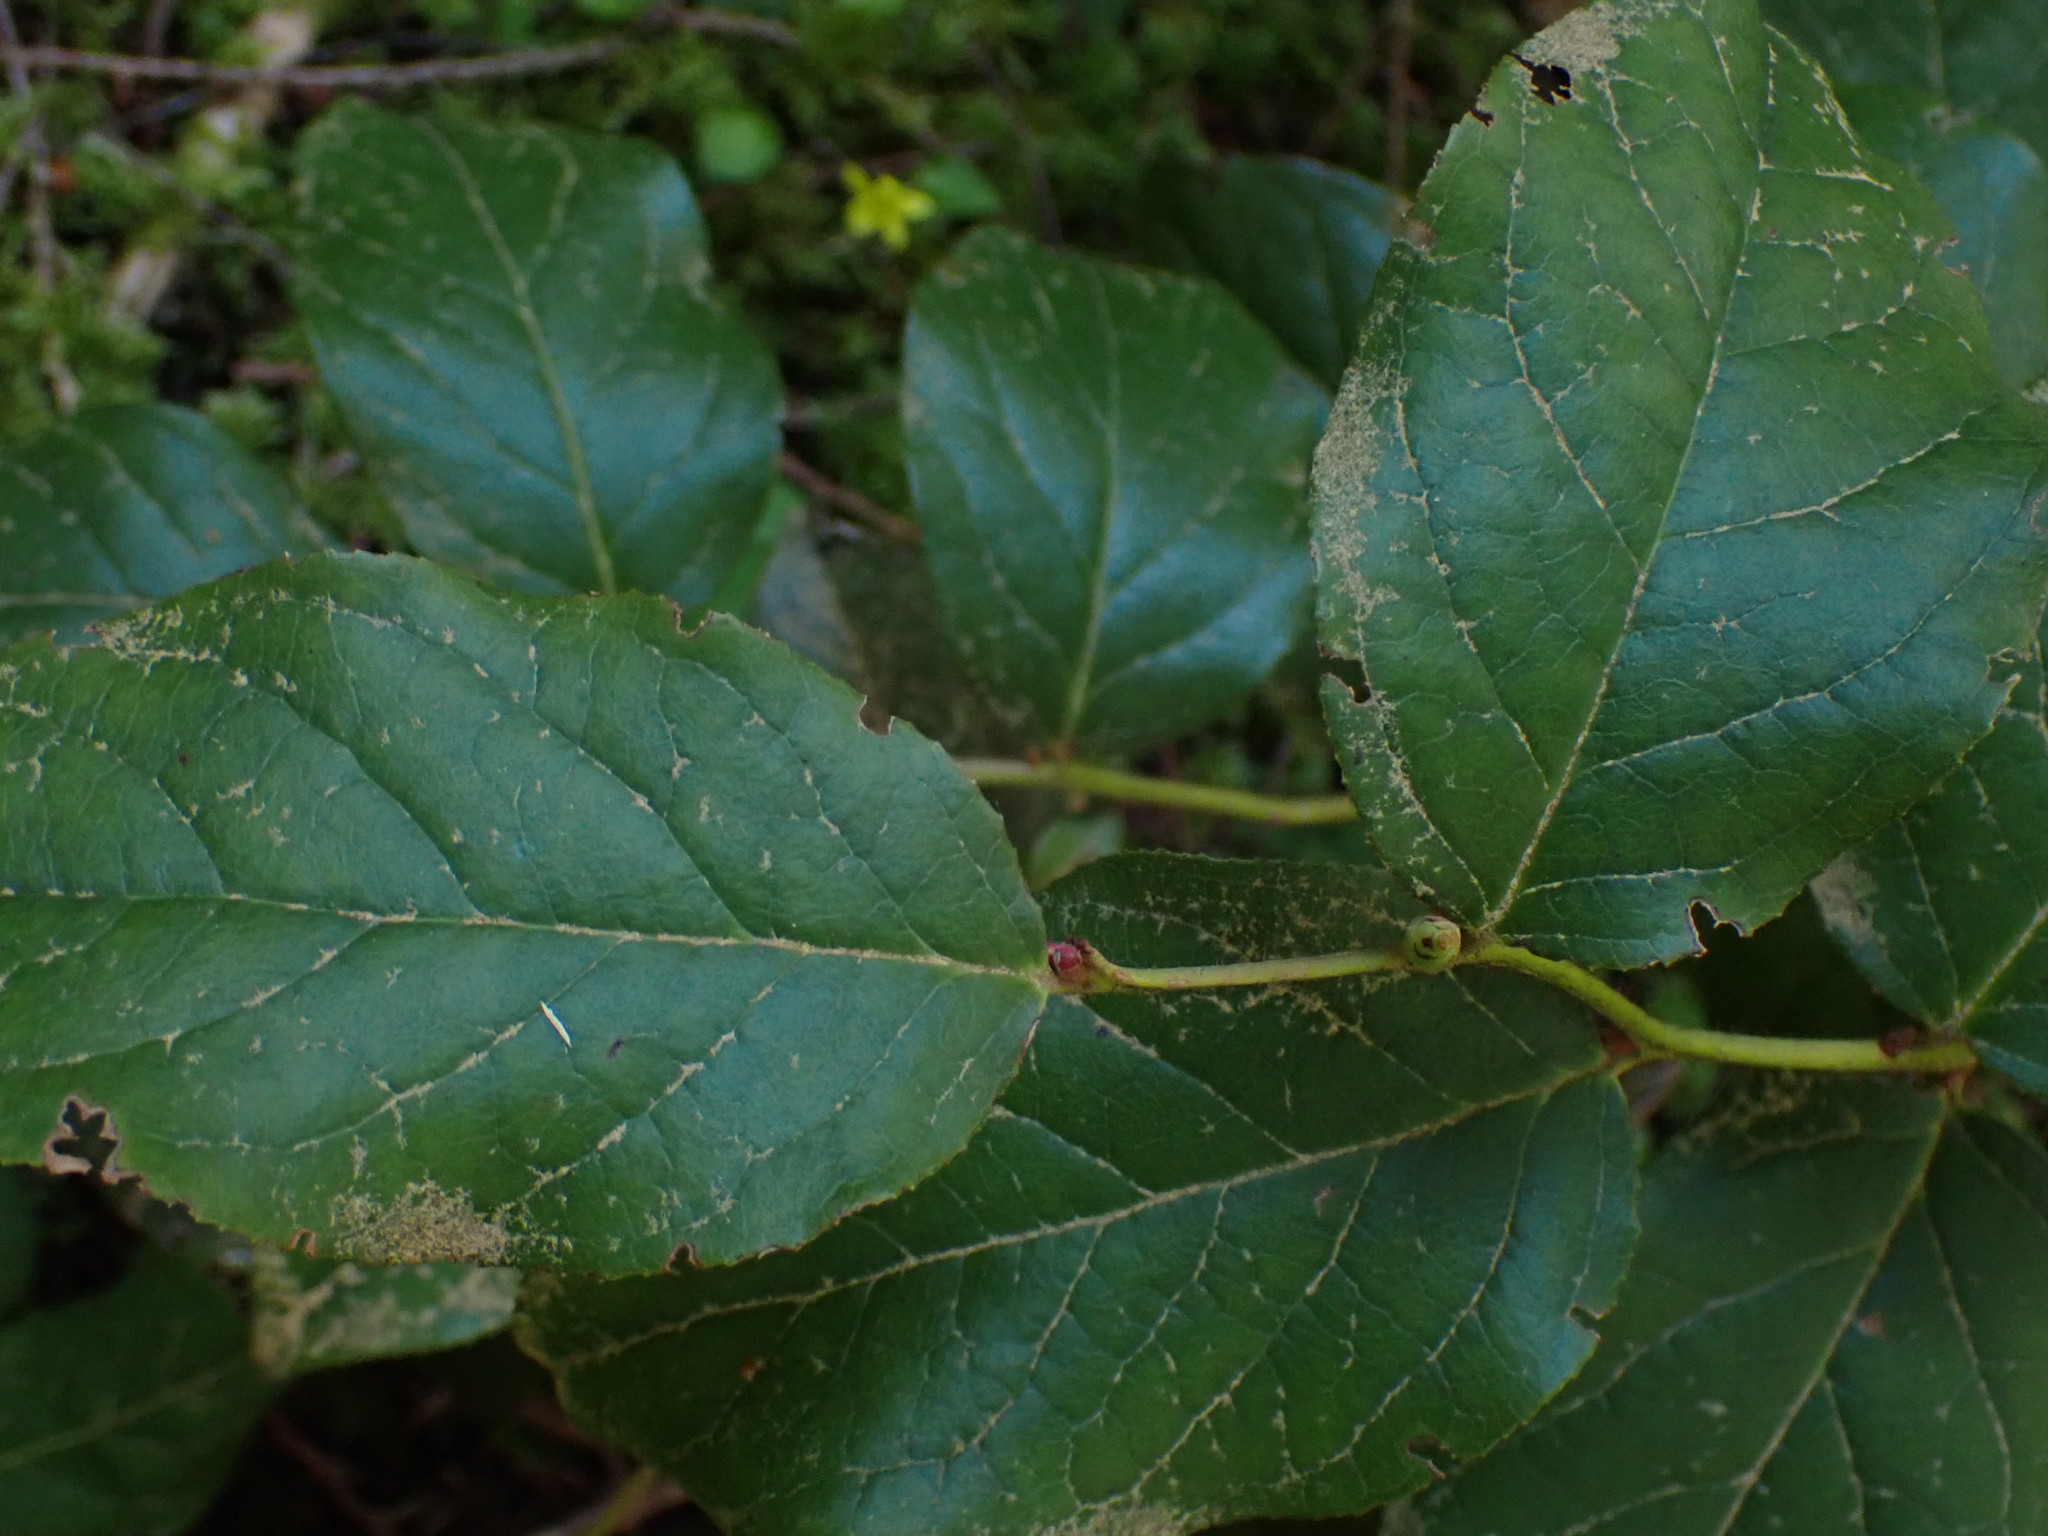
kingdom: Plantae
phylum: Tracheophyta
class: Magnoliopsida
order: Ericales
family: Ericaceae
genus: Gaultheria
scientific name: Gaultheria shallon
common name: Shallon
